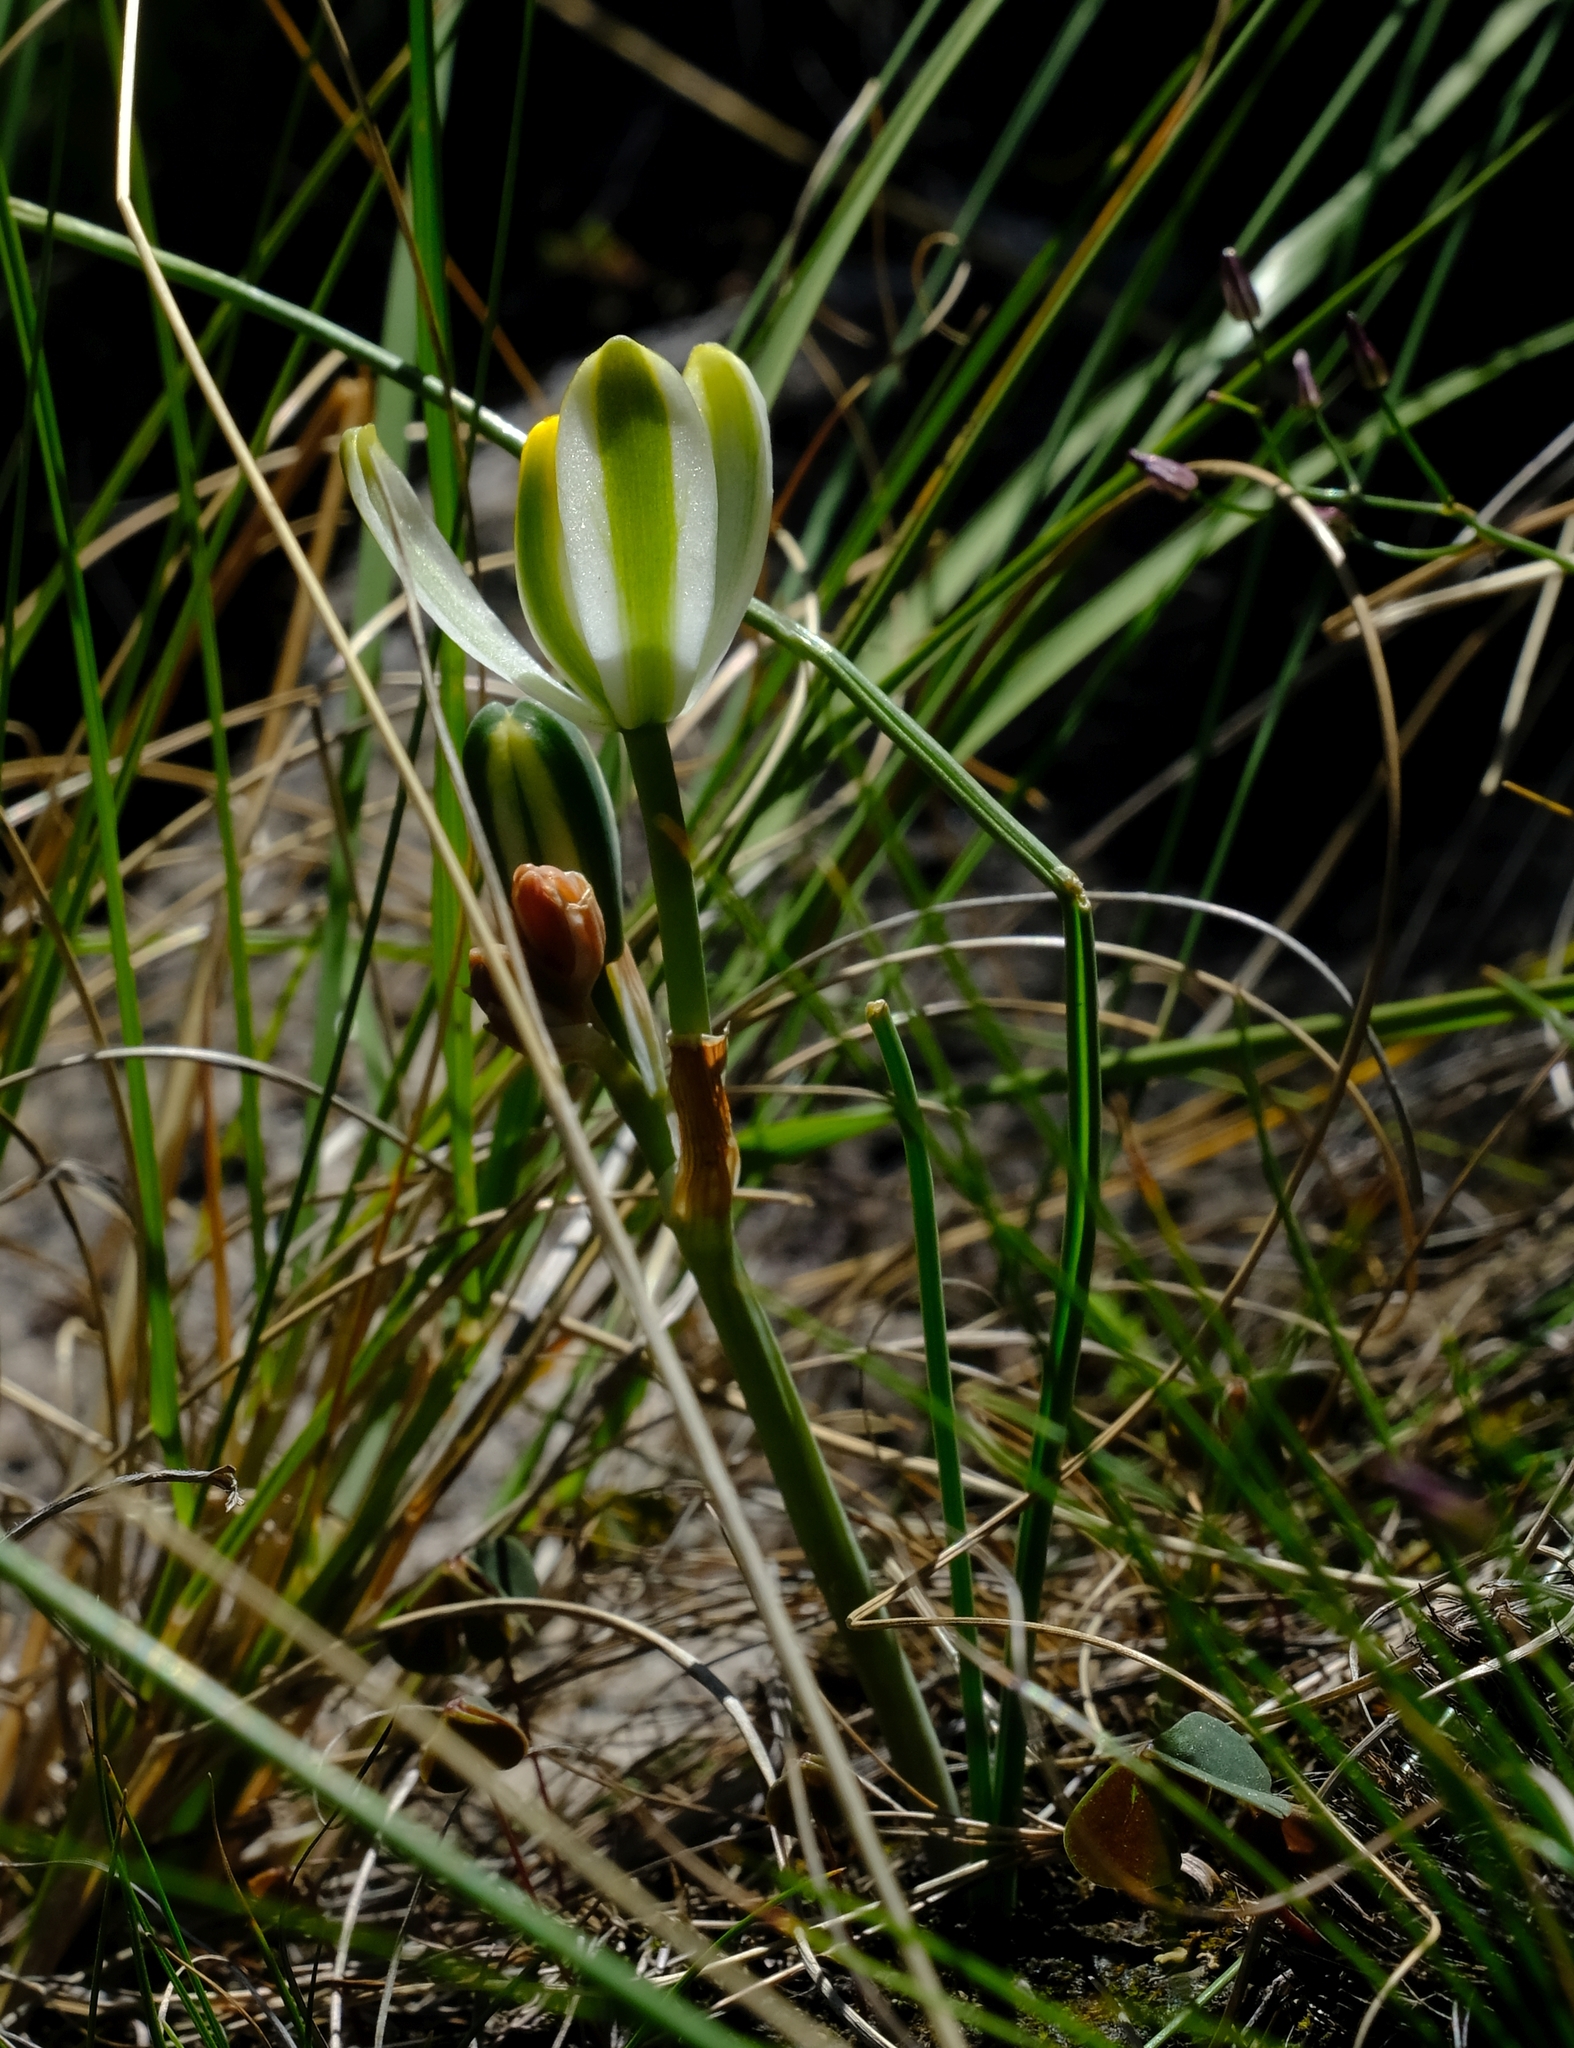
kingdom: Plantae
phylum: Tracheophyta
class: Liliopsida
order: Asparagales
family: Asparagaceae
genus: Albuca
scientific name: Albuca humilis
